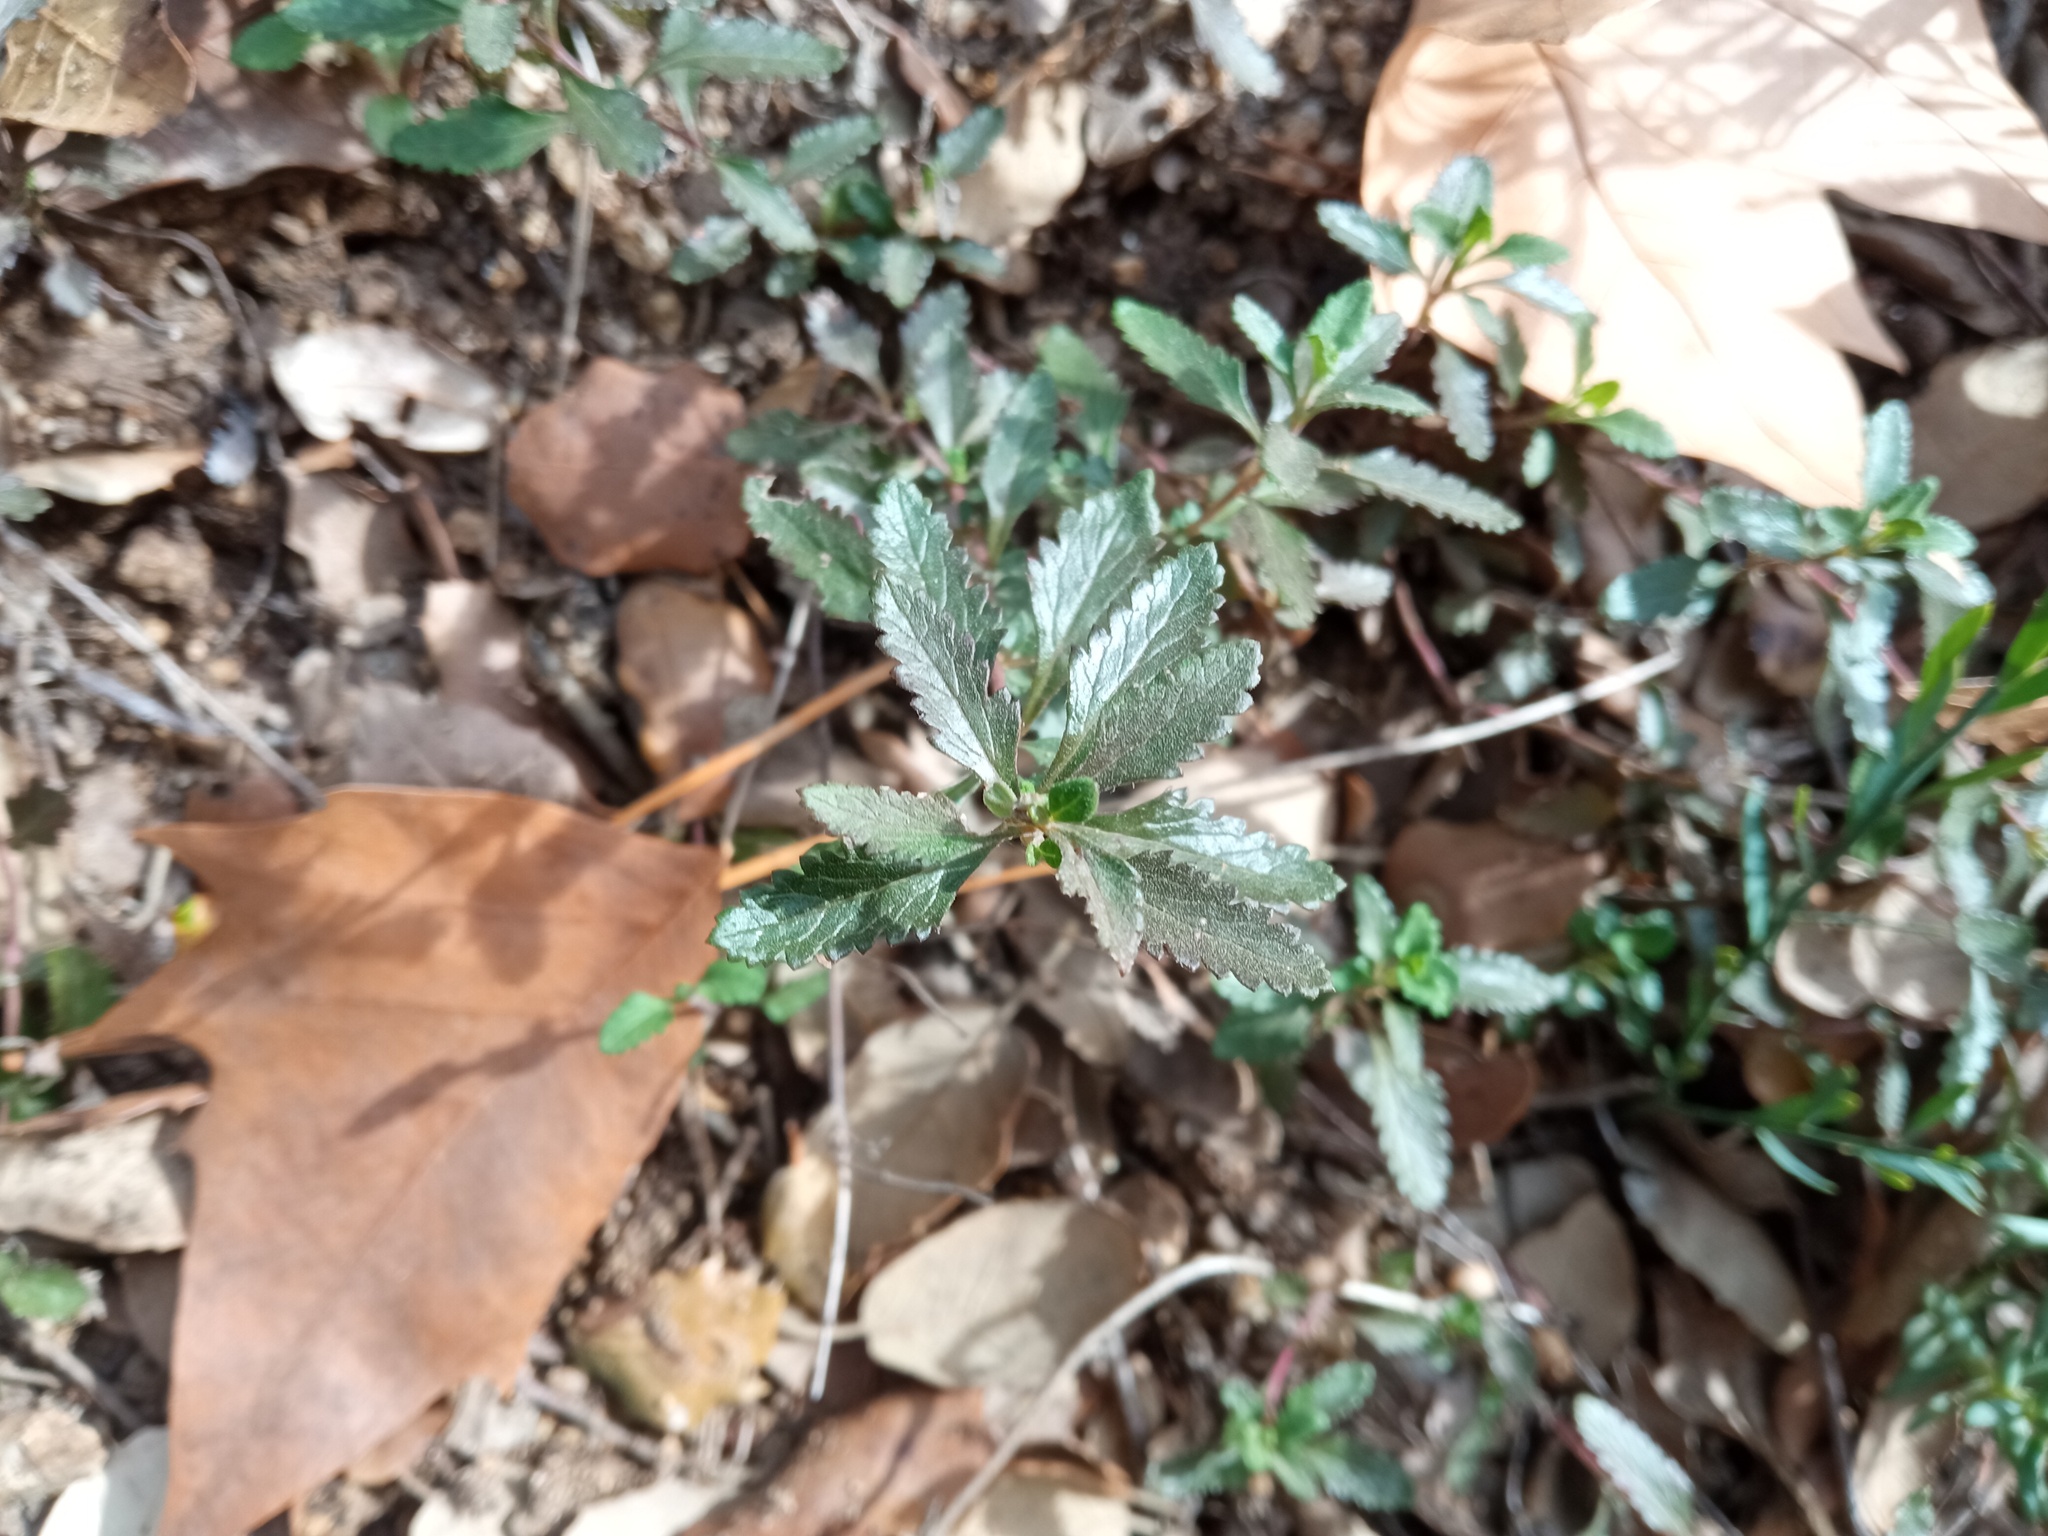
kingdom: Plantae
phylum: Tracheophyta
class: Magnoliopsida
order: Lamiales
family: Lamiaceae
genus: Teucrium
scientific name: Teucrium chamaedrys
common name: Wall germander
